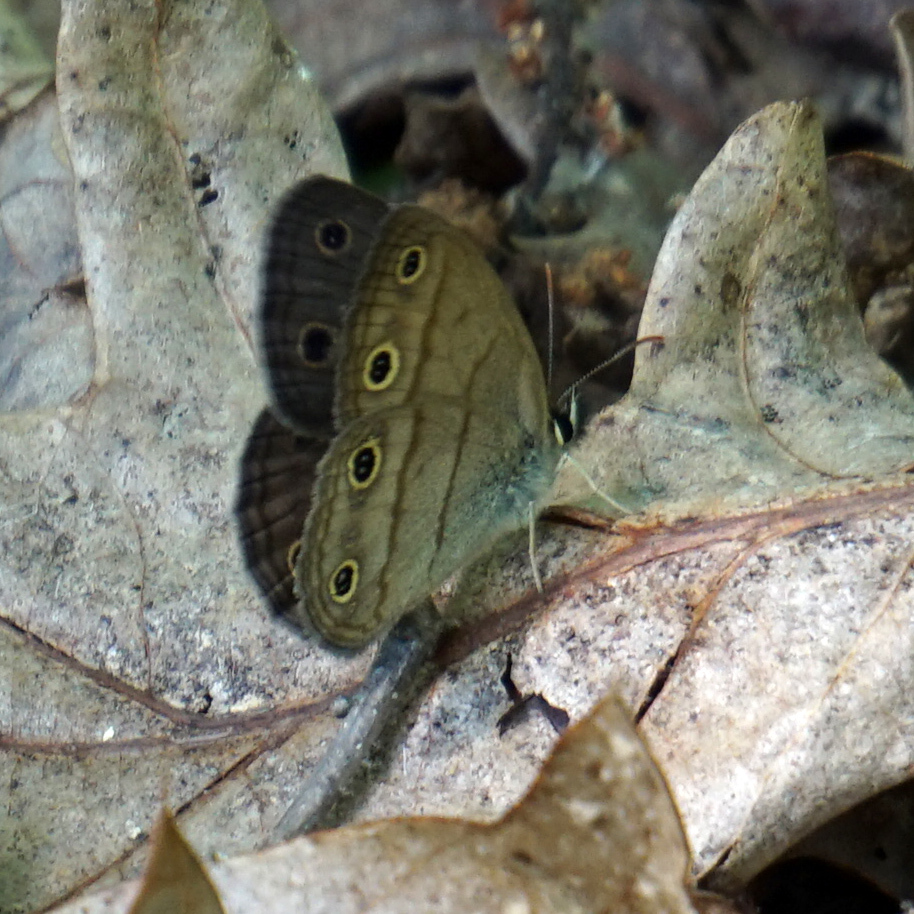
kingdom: Animalia
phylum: Arthropoda
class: Insecta
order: Lepidoptera
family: Nymphalidae
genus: Euptychia
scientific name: Euptychia cymela
